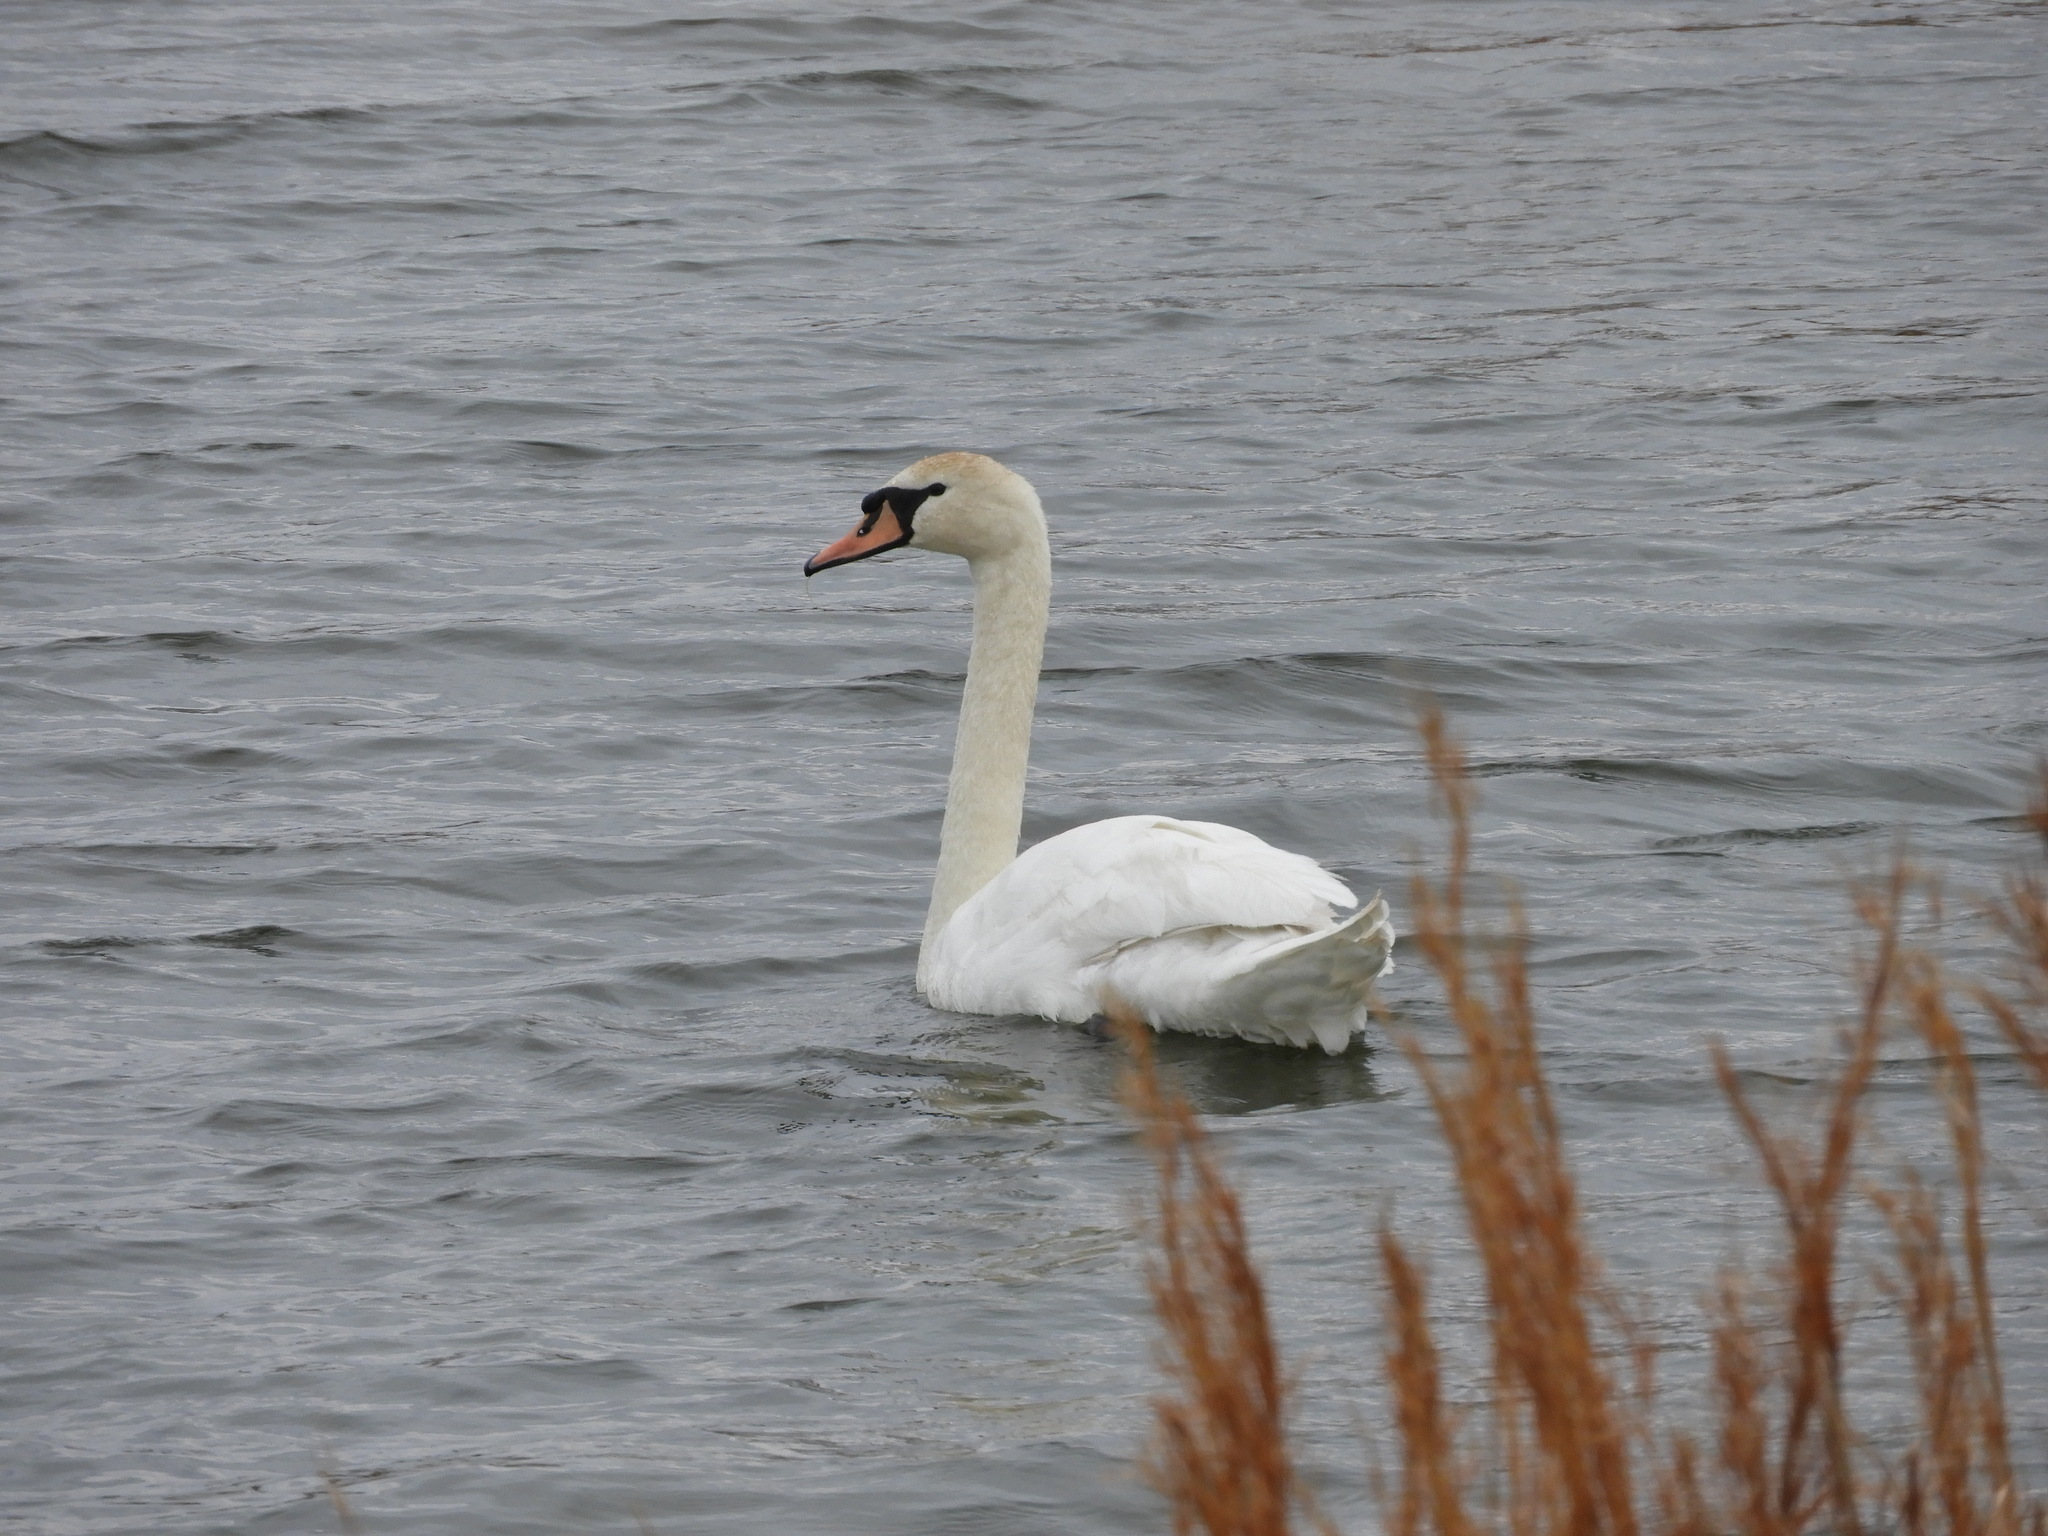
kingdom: Animalia
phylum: Chordata
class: Aves
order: Anseriformes
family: Anatidae
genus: Cygnus
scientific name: Cygnus olor
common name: Mute swan
